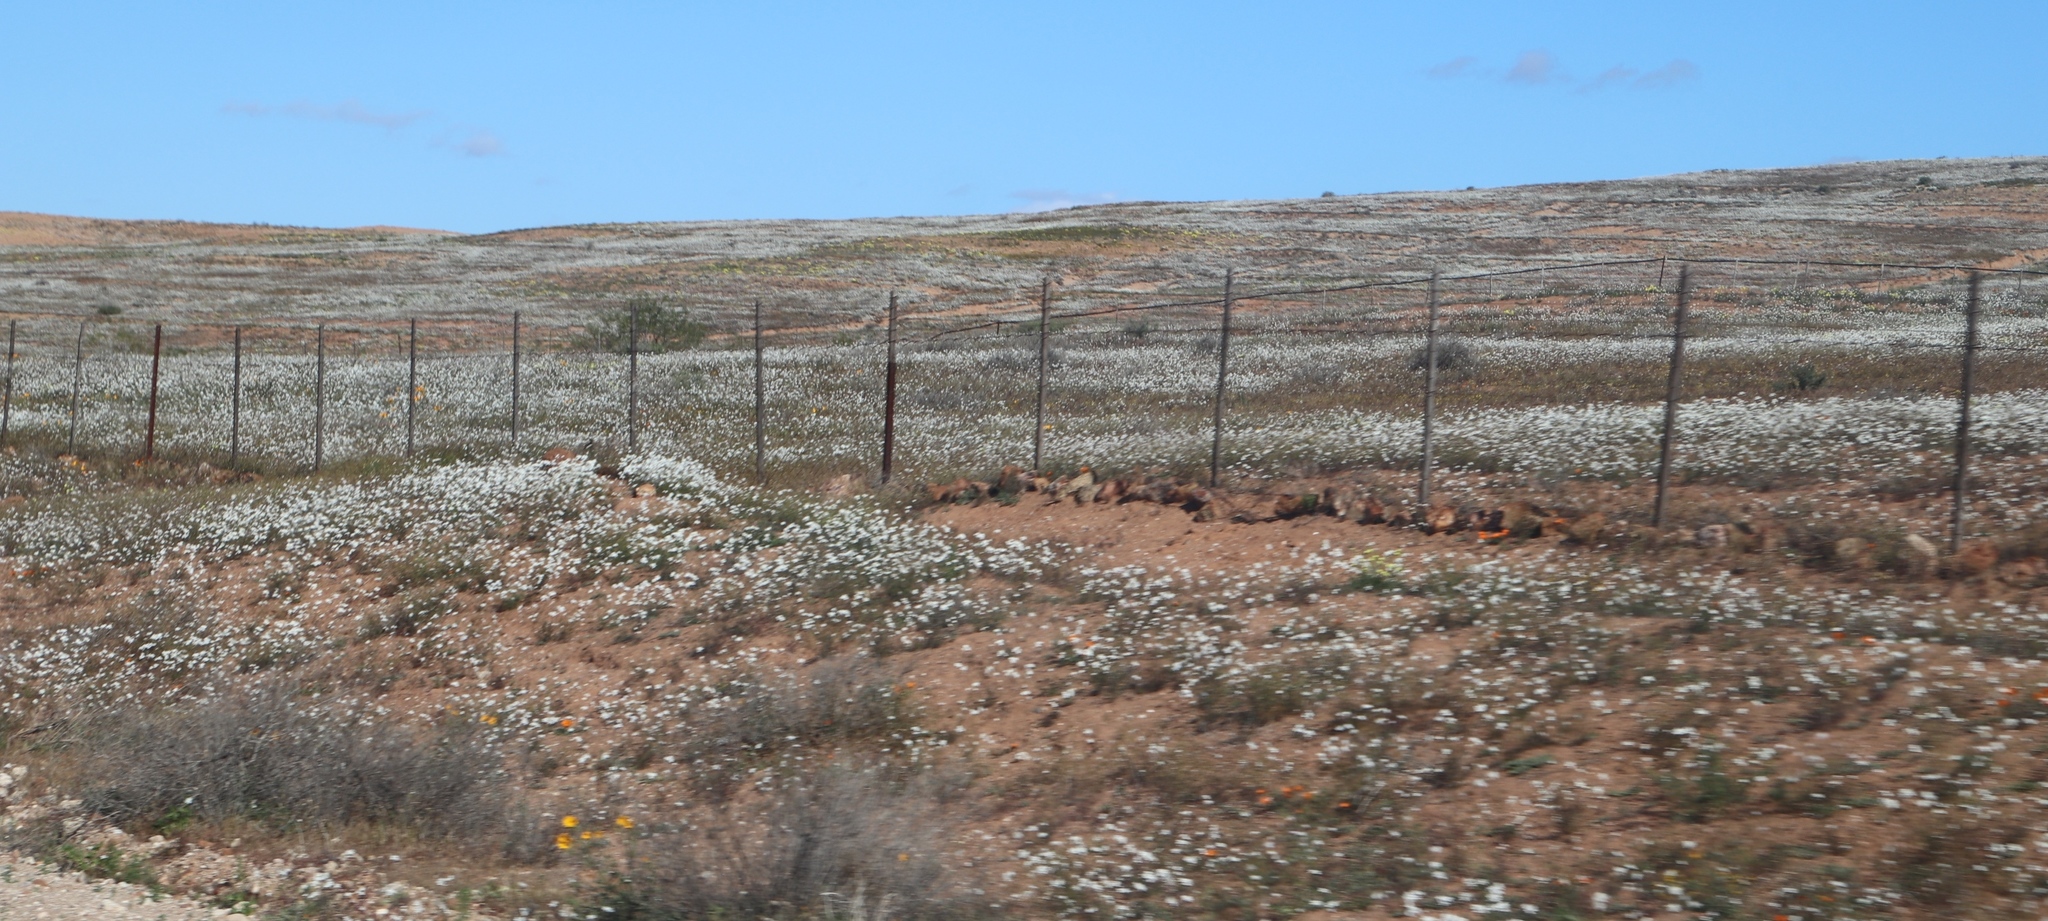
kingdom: Plantae
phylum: Tracheophyta
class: Magnoliopsida
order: Brassicales
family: Brassicaceae
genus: Heliophila
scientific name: Heliophila variabilis
